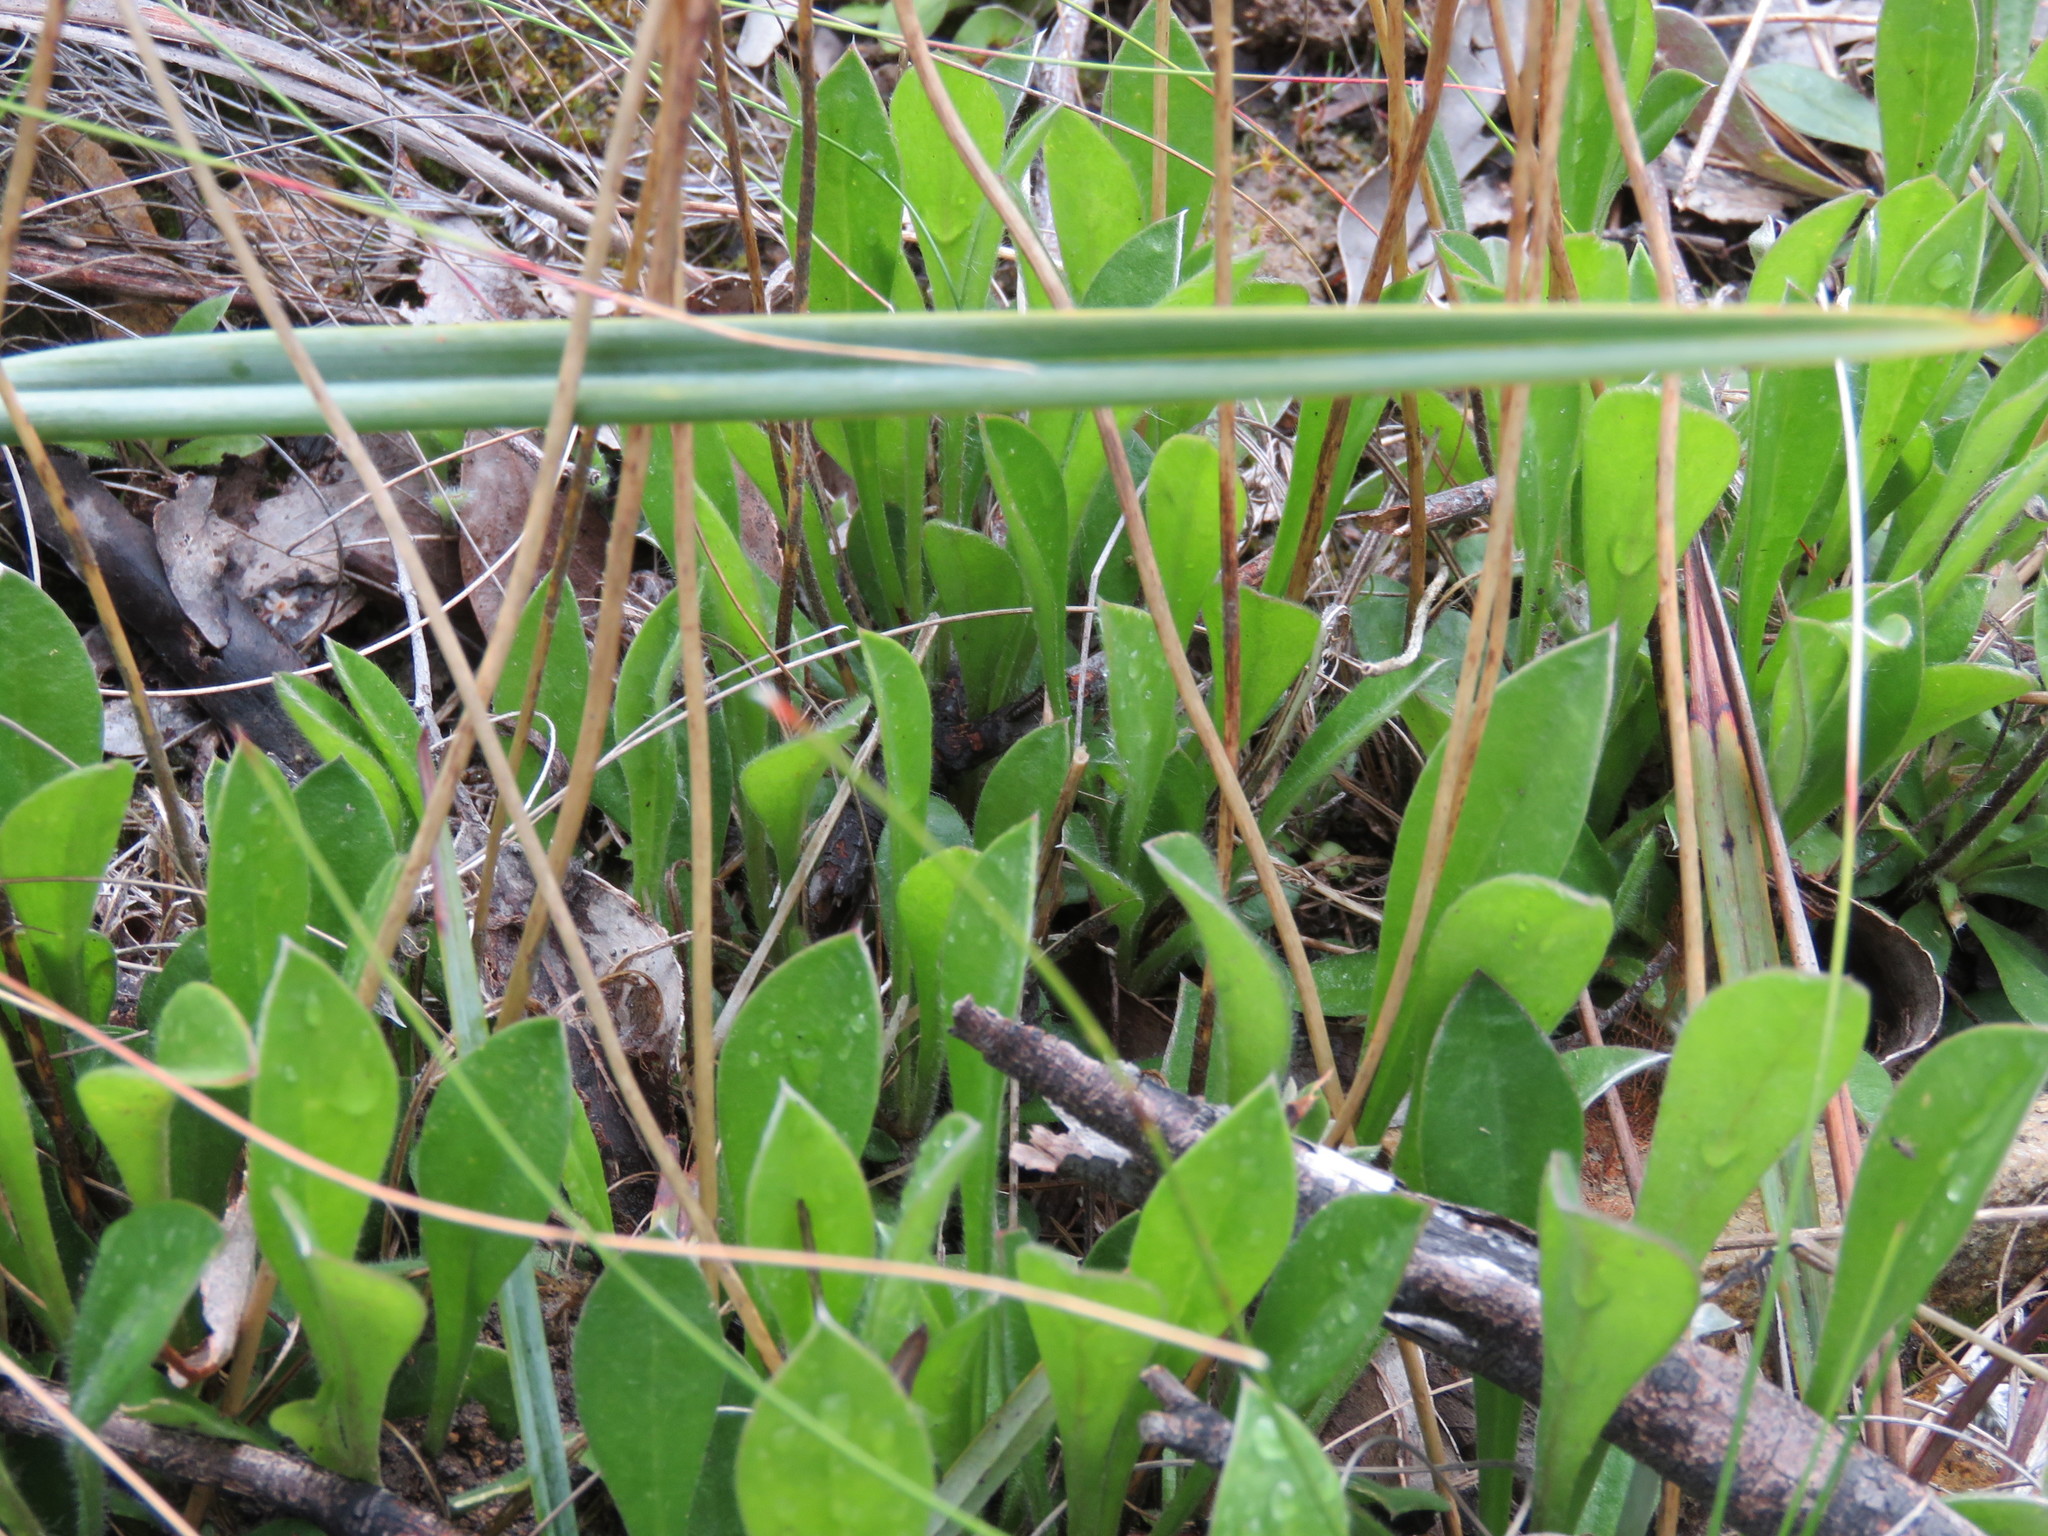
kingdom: Plantae
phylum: Tracheophyta
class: Magnoliopsida
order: Asterales
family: Goodeniaceae
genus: Brunonia
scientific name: Brunonia australis
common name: Blue pincushion
